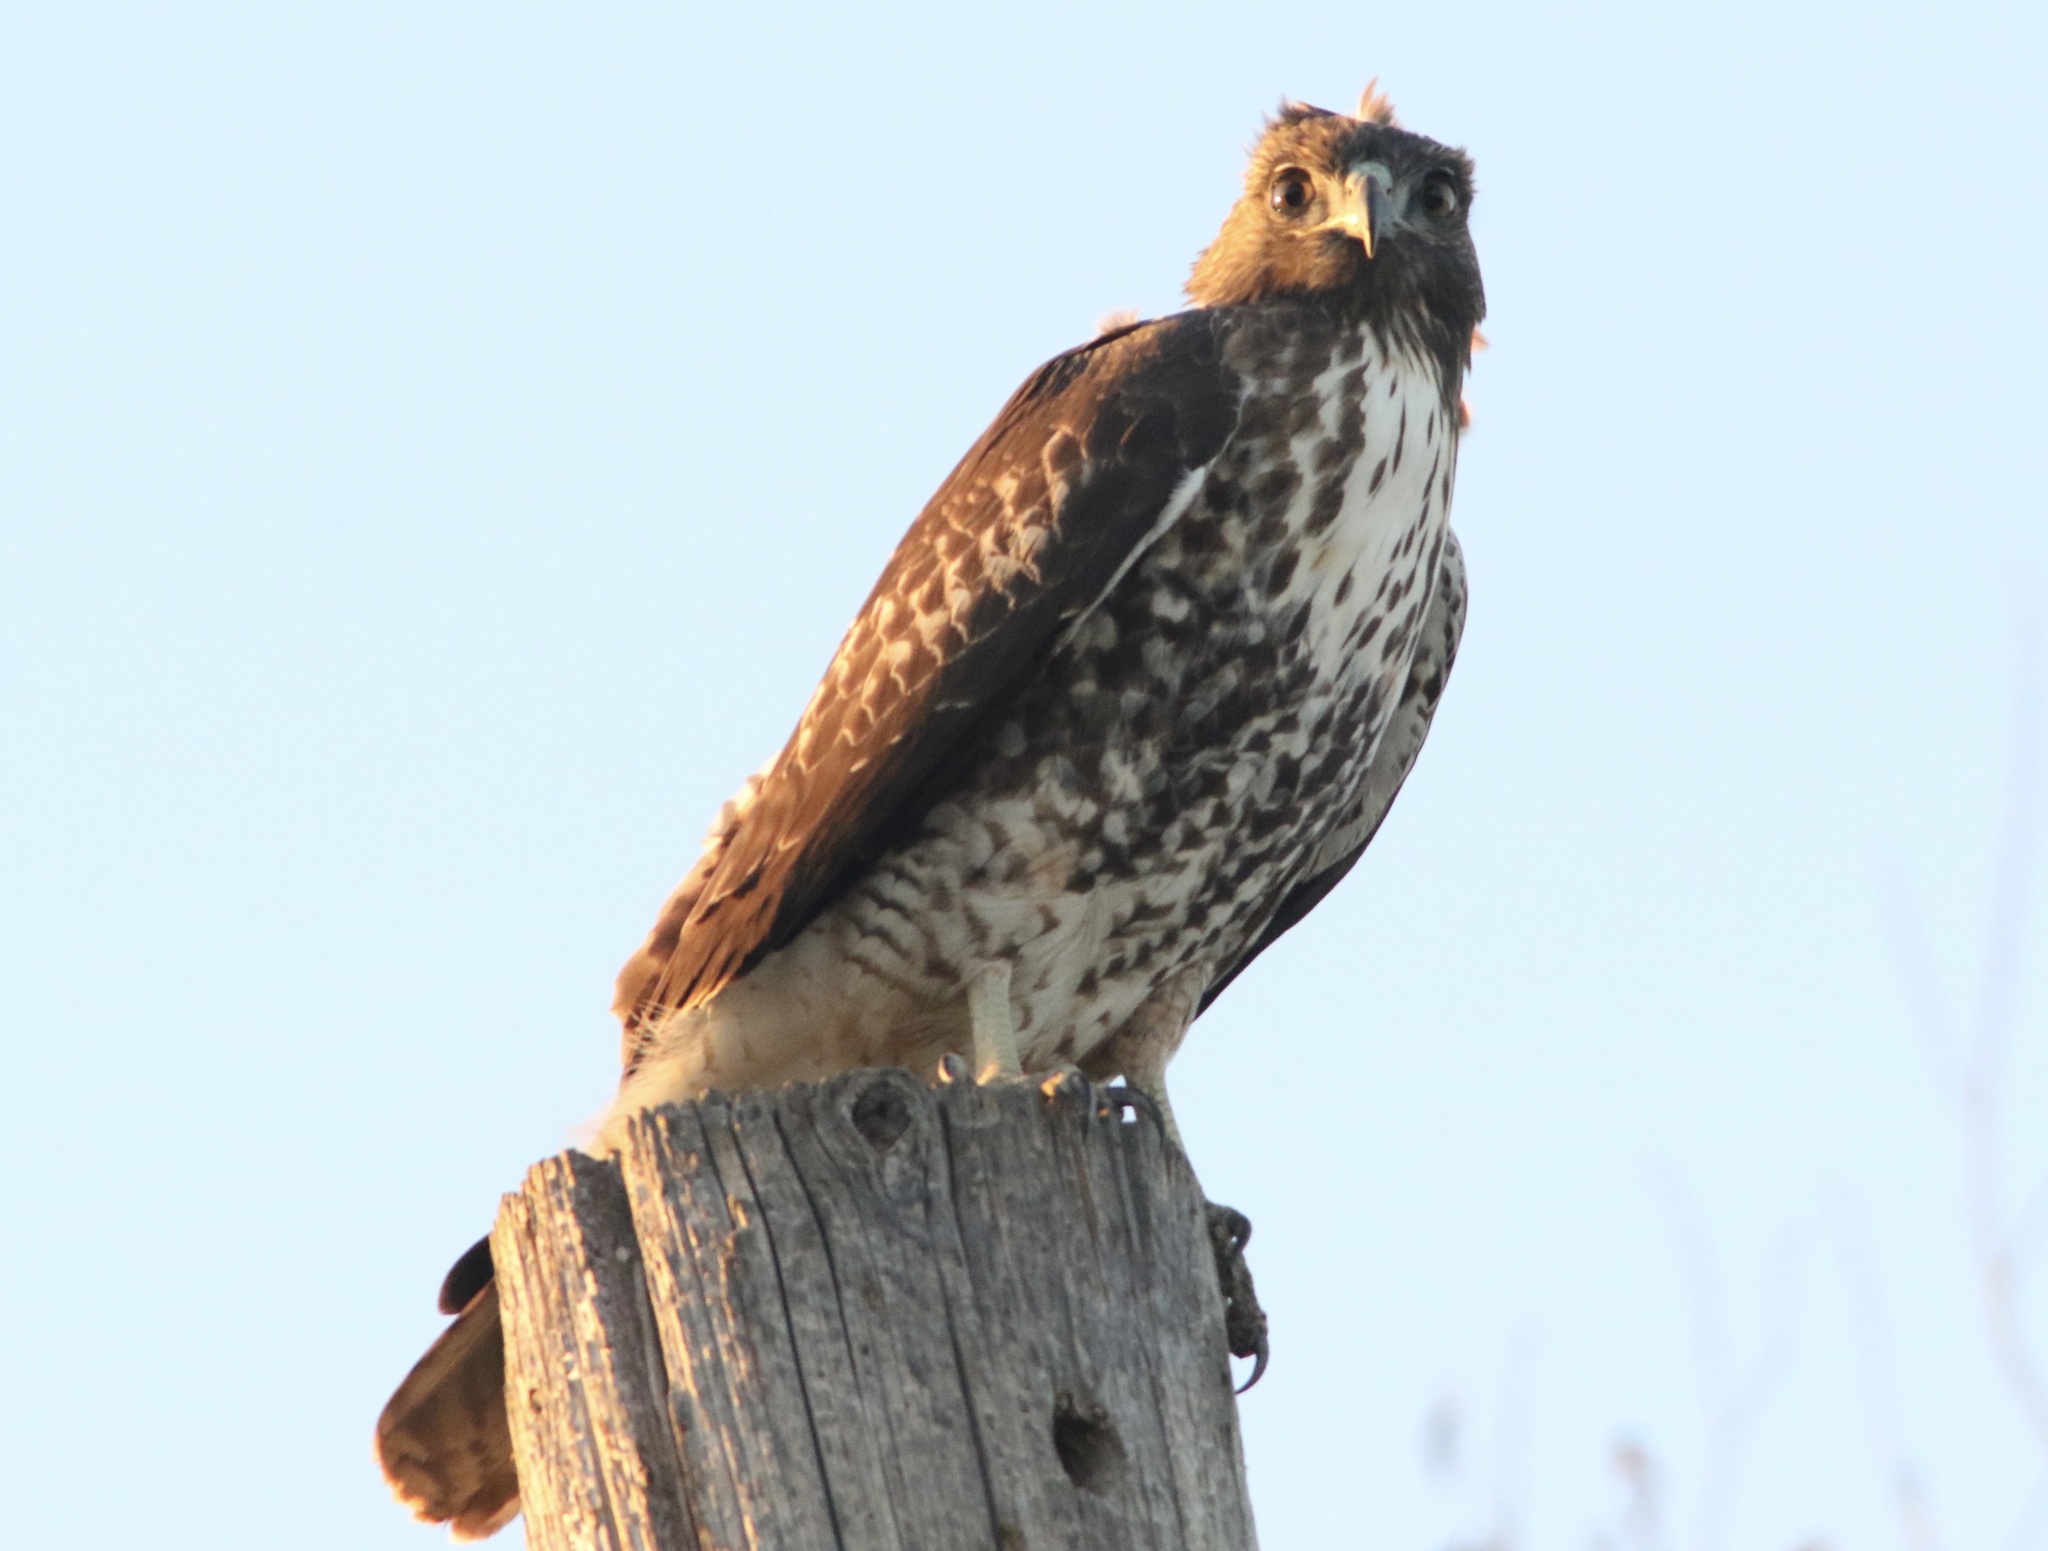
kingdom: Animalia
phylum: Chordata
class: Aves
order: Accipitriformes
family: Accipitridae
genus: Buteo
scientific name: Buteo jamaicensis
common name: Red-tailed hawk
